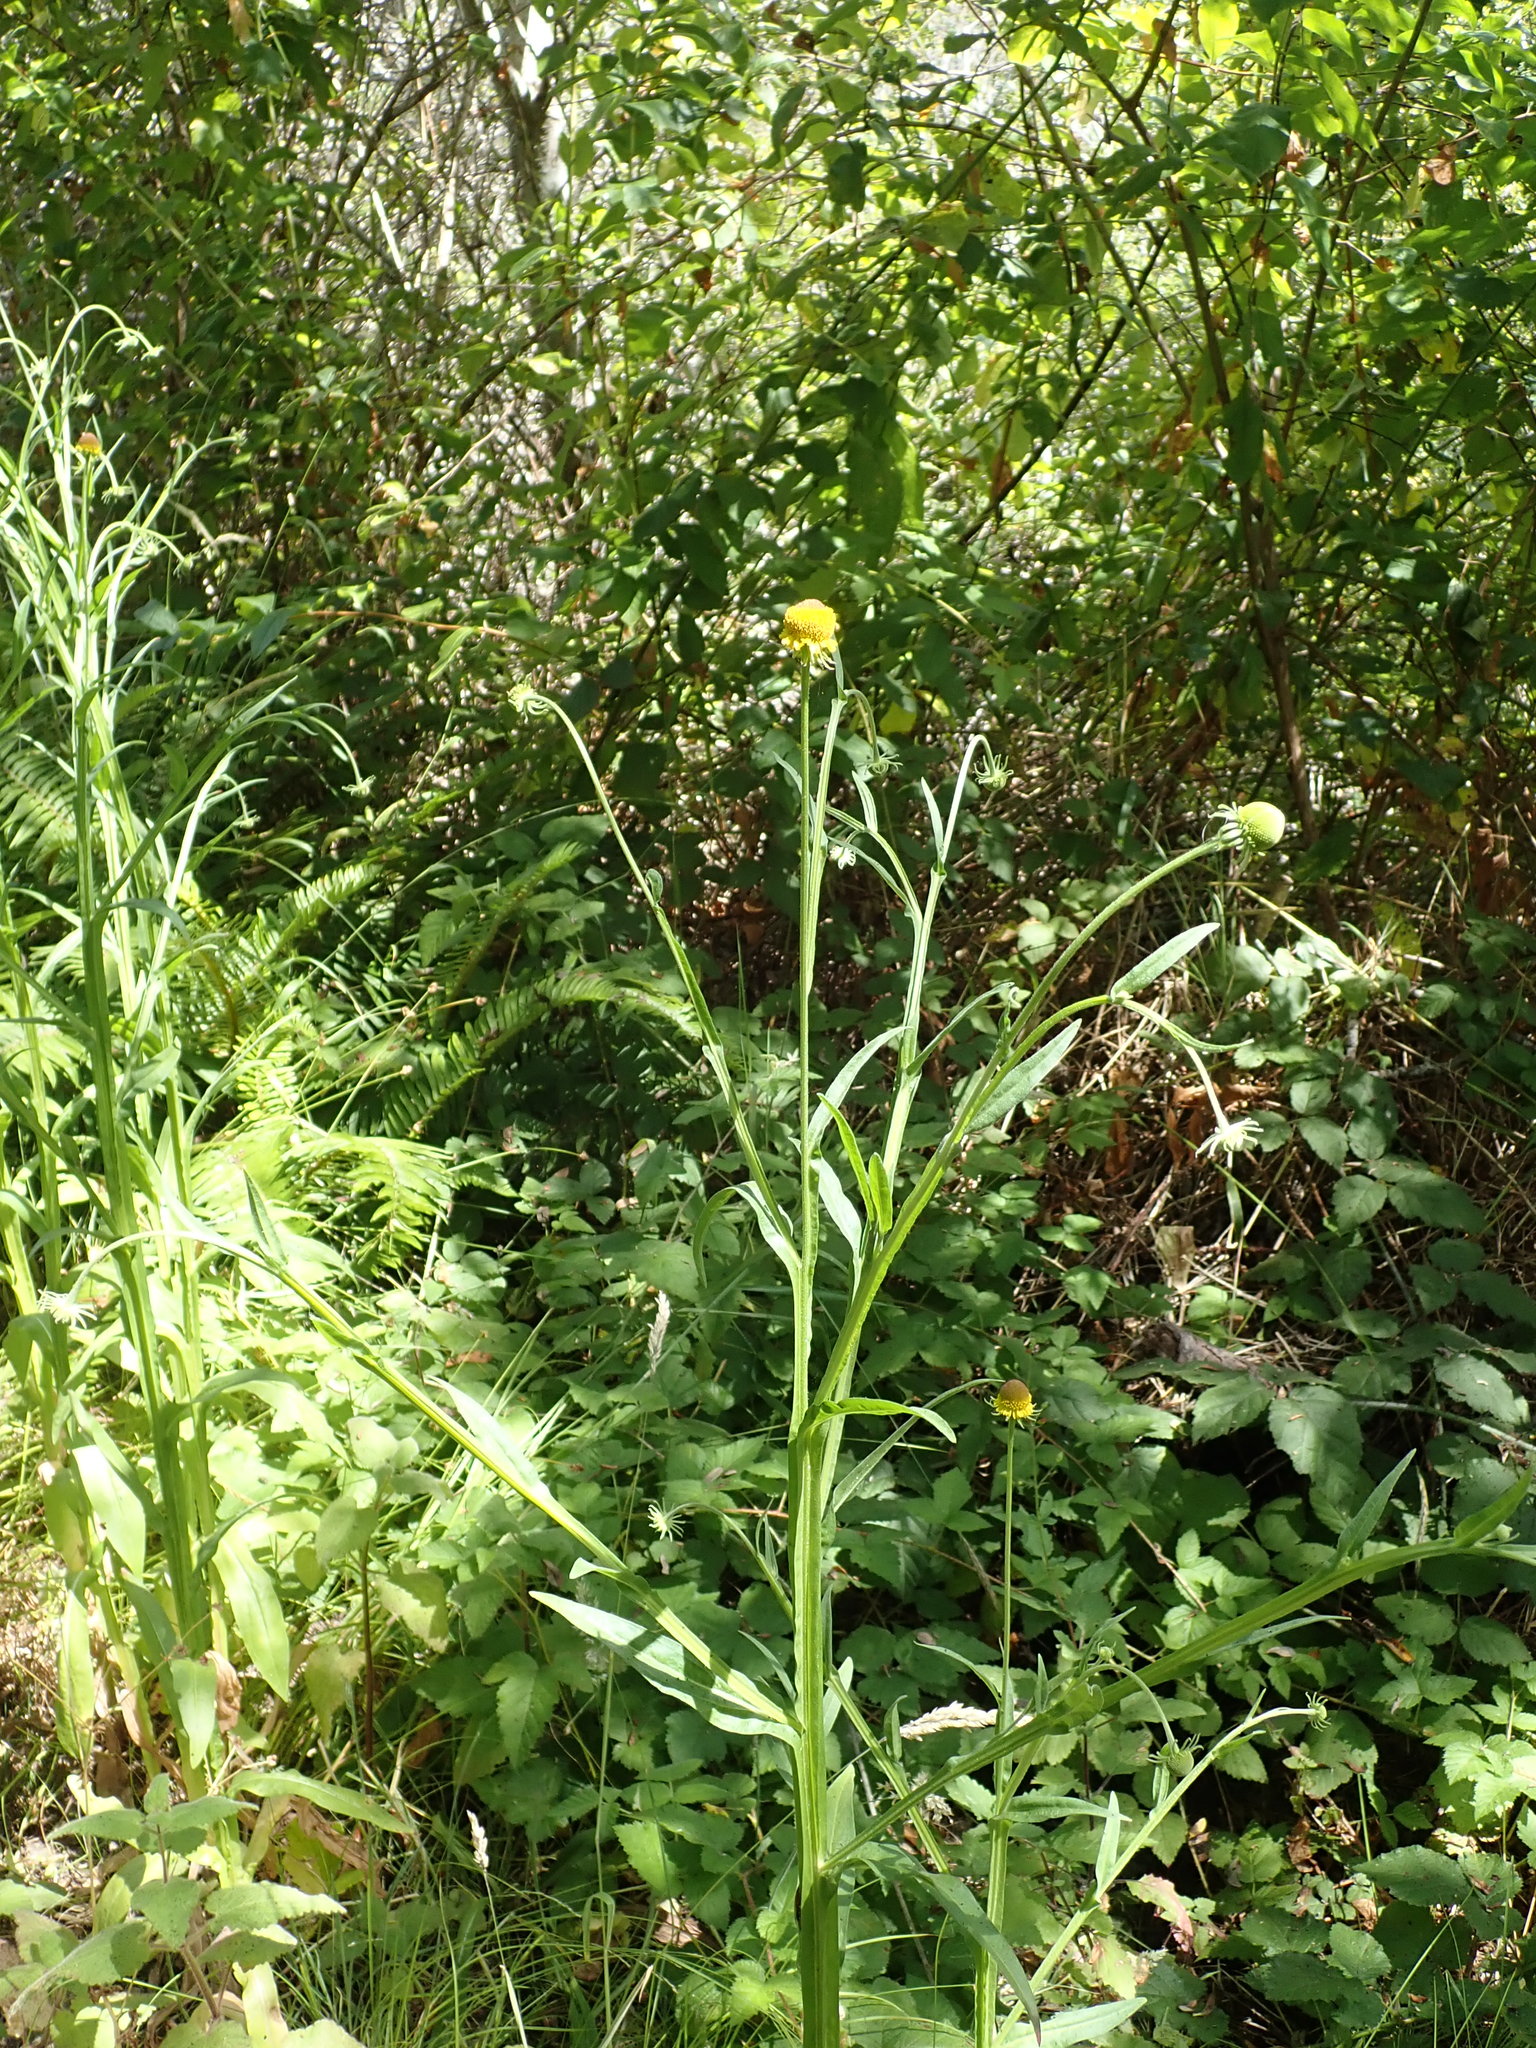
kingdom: Plantae
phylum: Tracheophyta
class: Magnoliopsida
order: Asterales
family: Asteraceae
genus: Helenium
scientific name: Helenium puberulum
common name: Sneezewort
